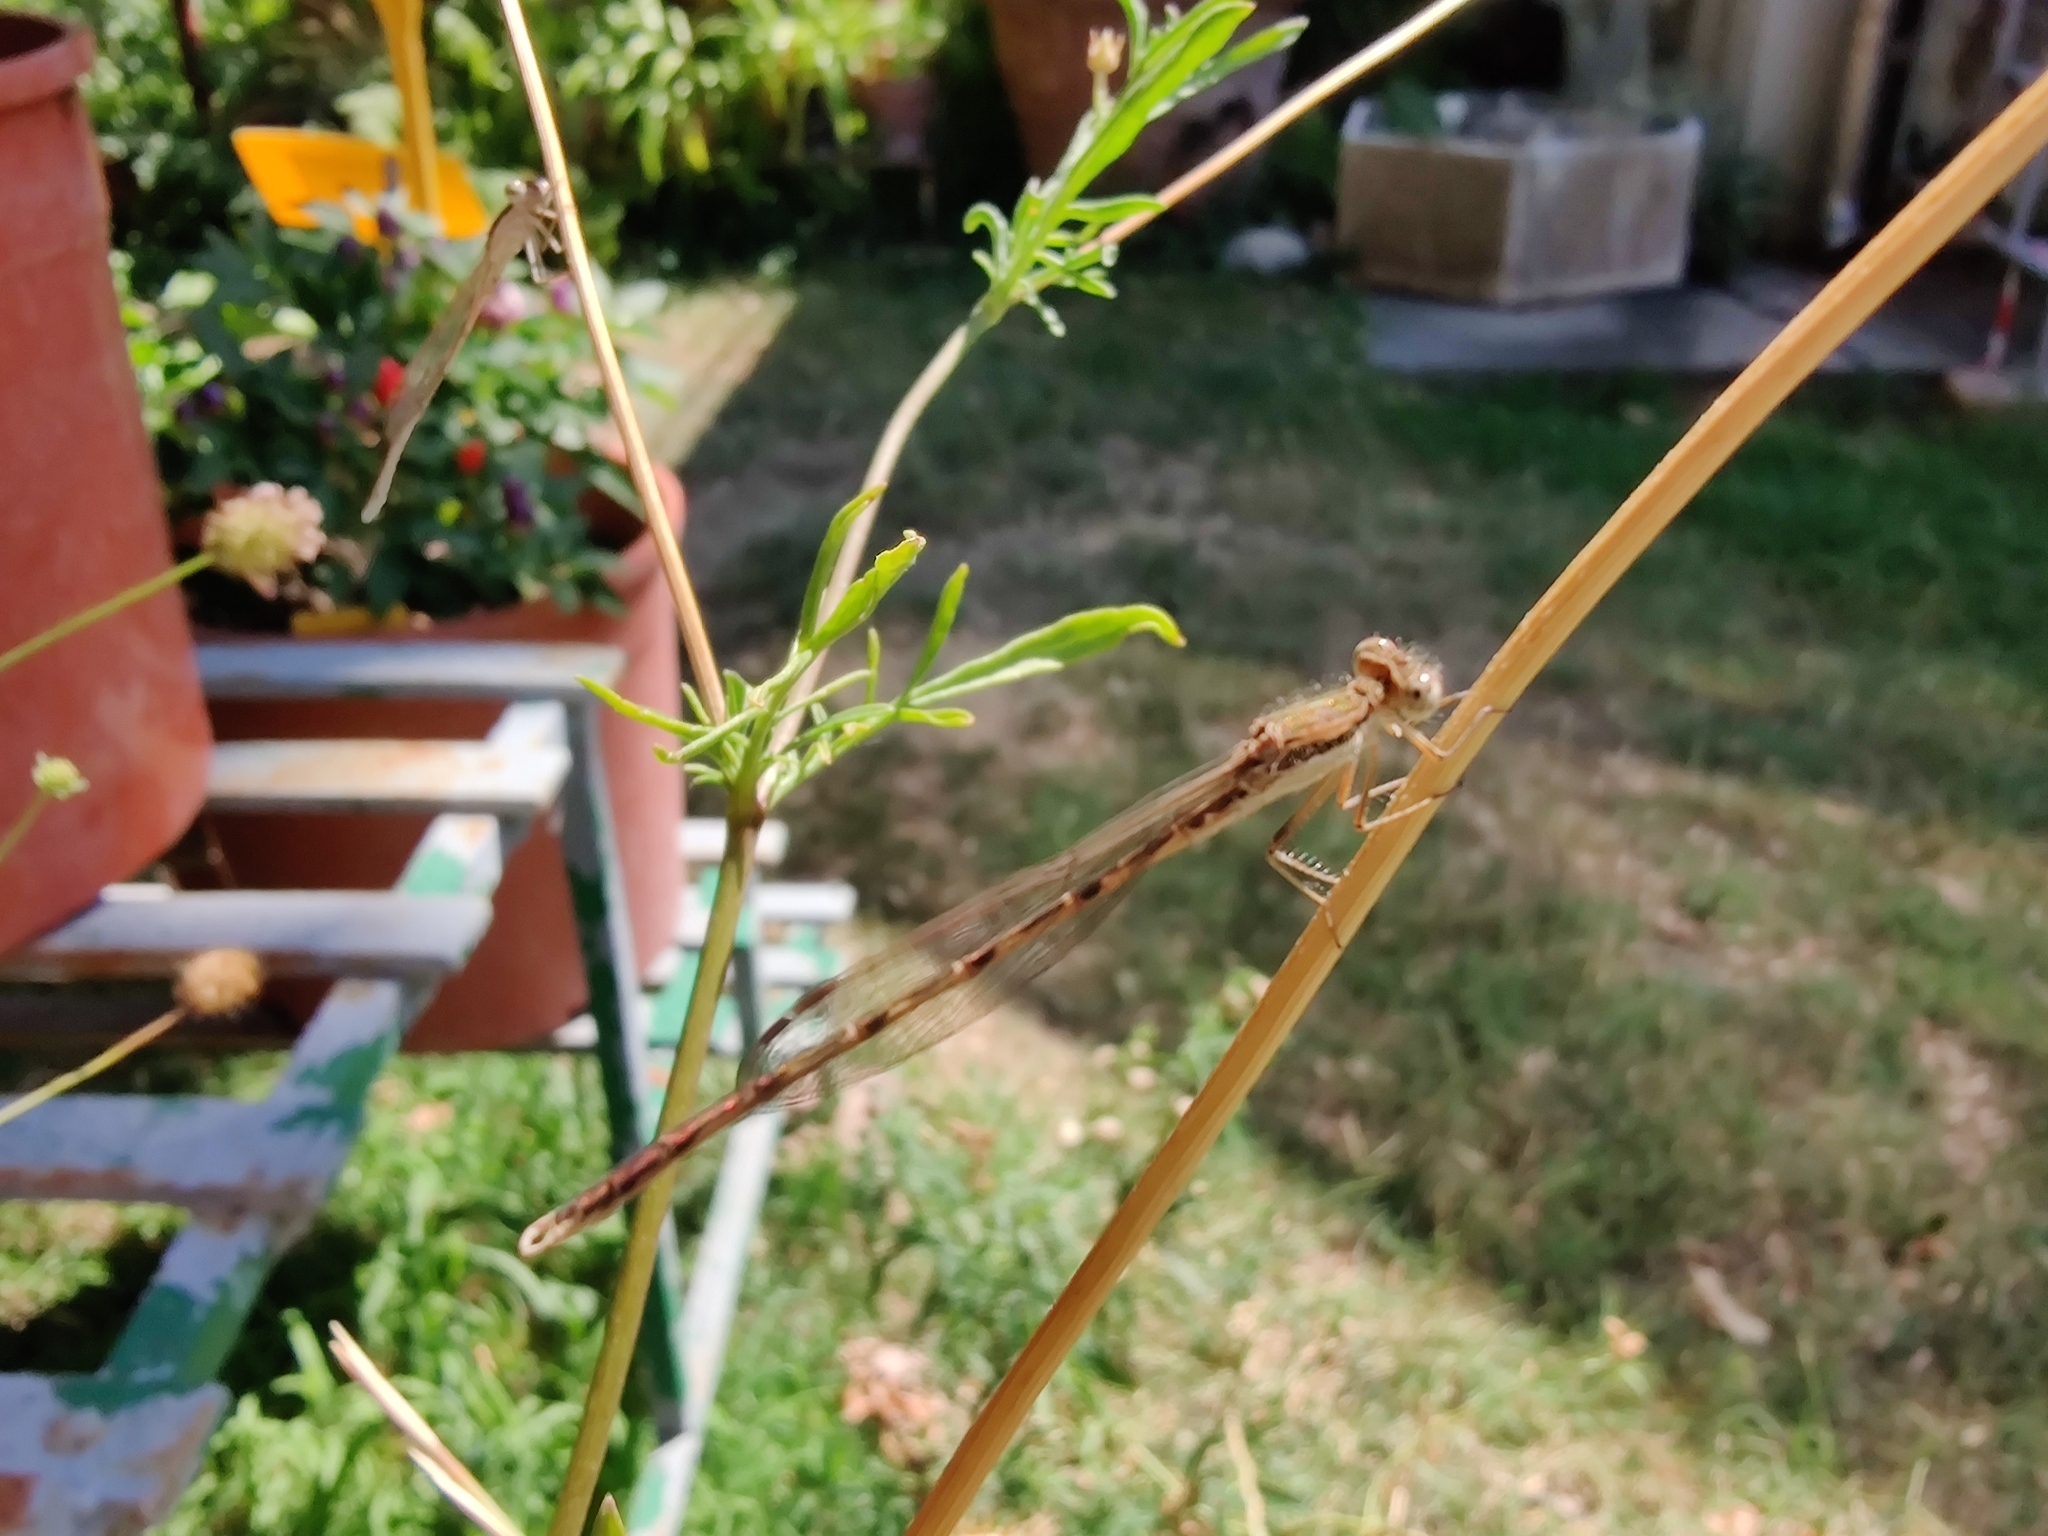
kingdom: Animalia
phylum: Arthropoda
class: Insecta
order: Odonata
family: Lestidae
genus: Sympecma
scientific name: Sympecma fusca
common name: Common winter damsel
